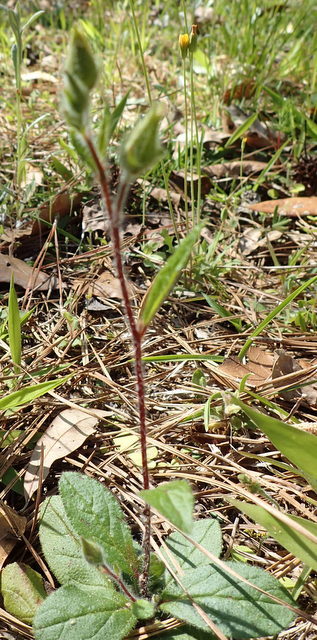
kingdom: Plantae
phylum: Tracheophyta
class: Magnoliopsida
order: Malvales
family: Cistaceae
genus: Crocanthemum
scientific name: Crocanthemum carolinianum
